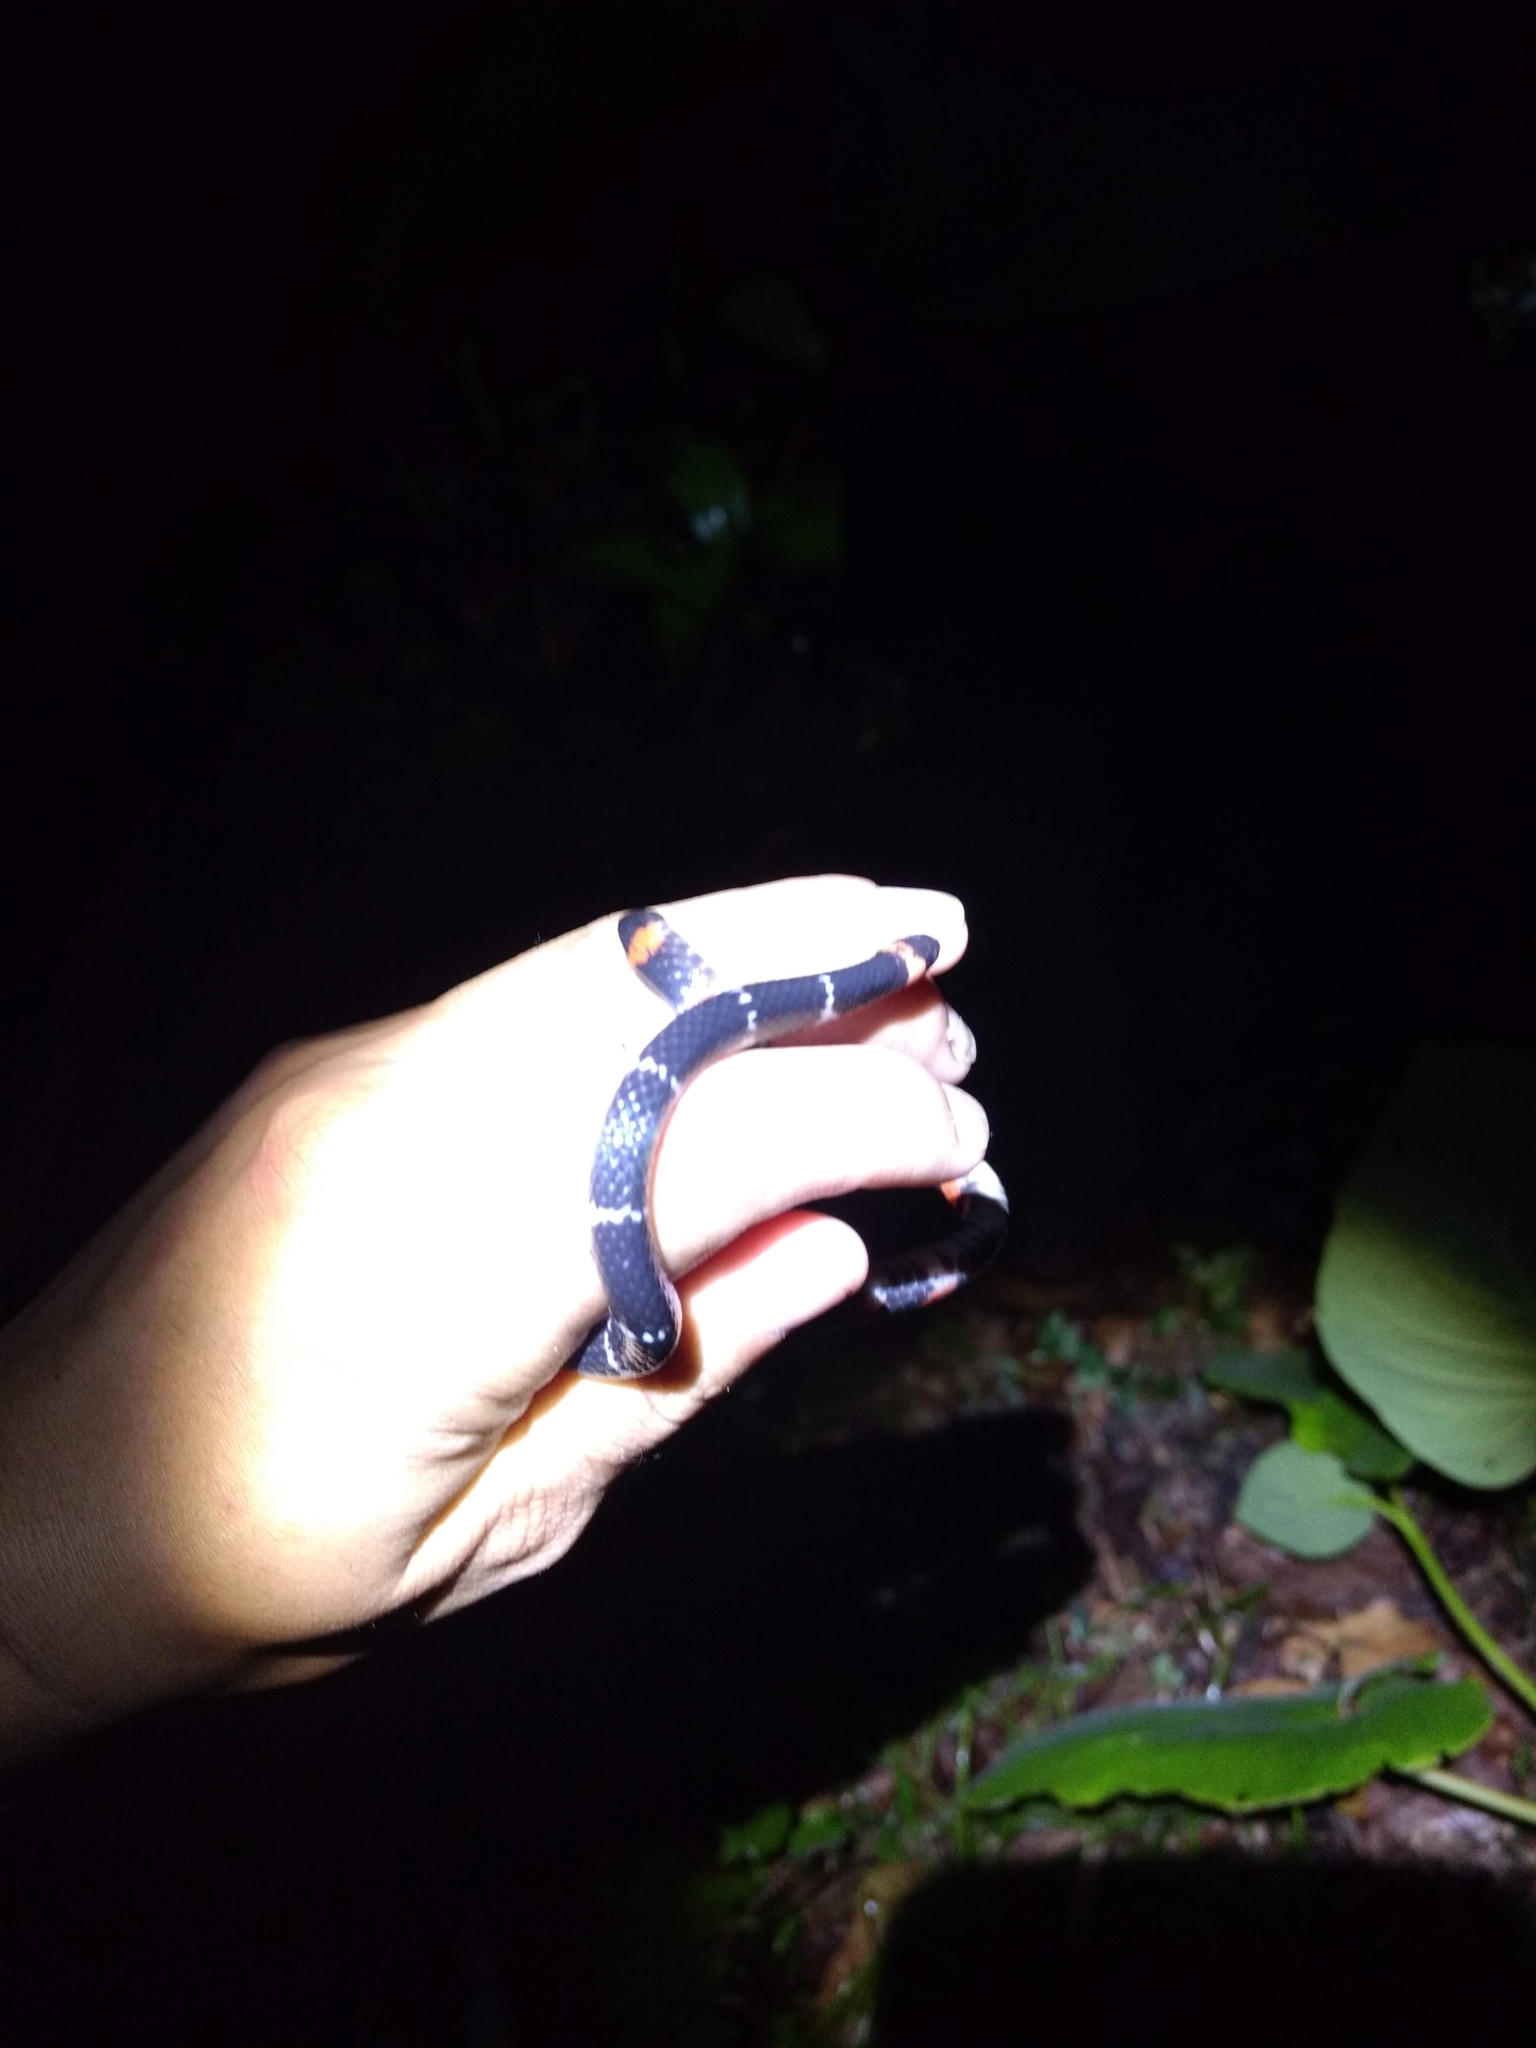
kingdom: Animalia
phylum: Chordata
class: Squamata
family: Colubridae
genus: Geophis
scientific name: Geophis laticinctus
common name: Mesa central earth snake
